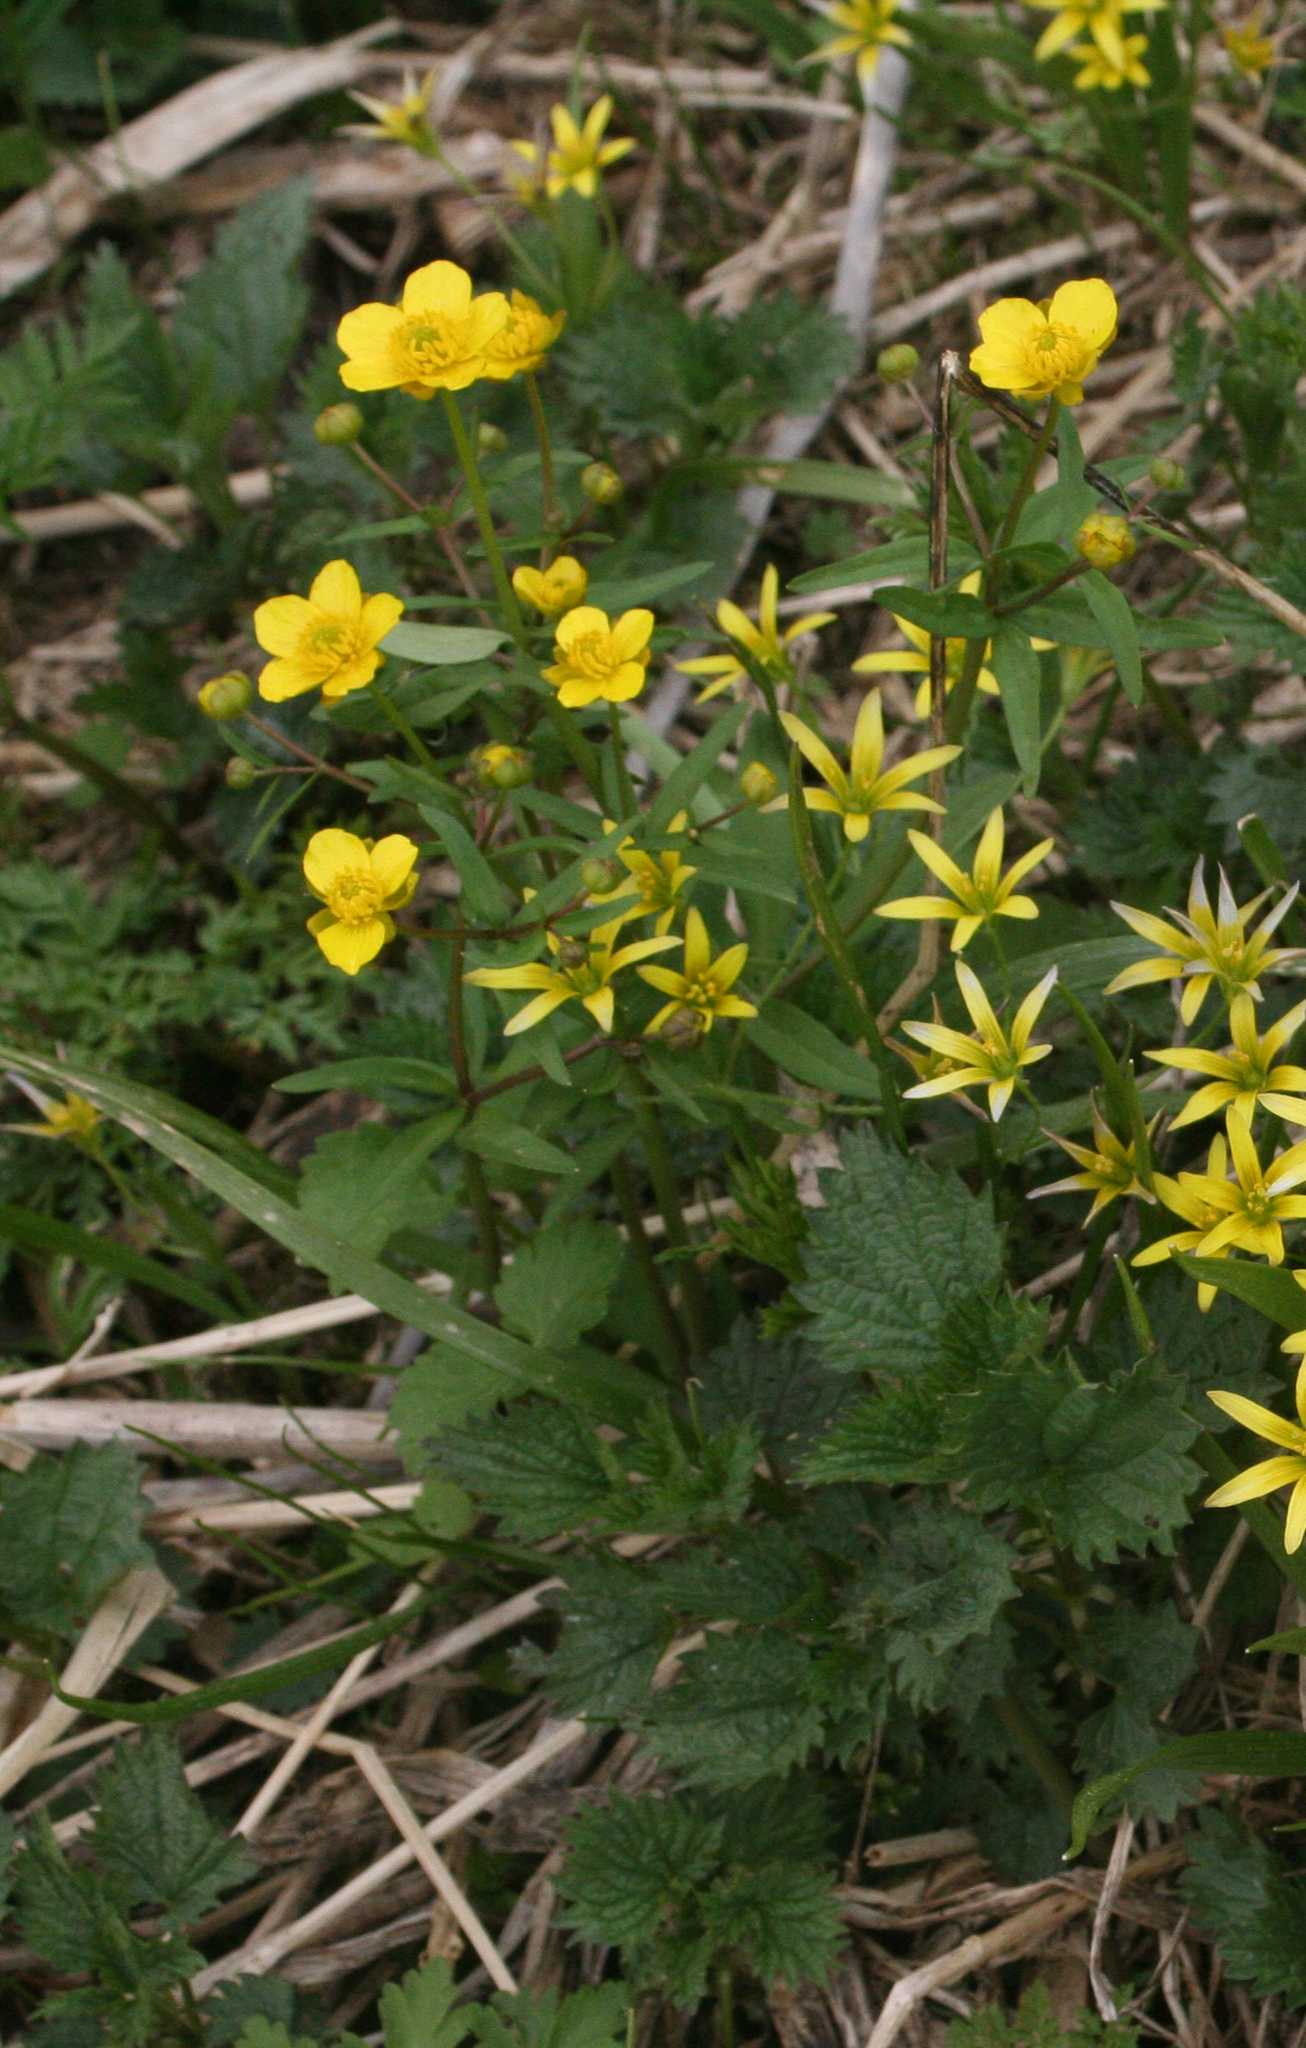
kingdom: Plantae
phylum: Tracheophyta
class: Magnoliopsida
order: Ranunculales
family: Ranunculaceae
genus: Ranunculus
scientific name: Ranunculus monophyllus
